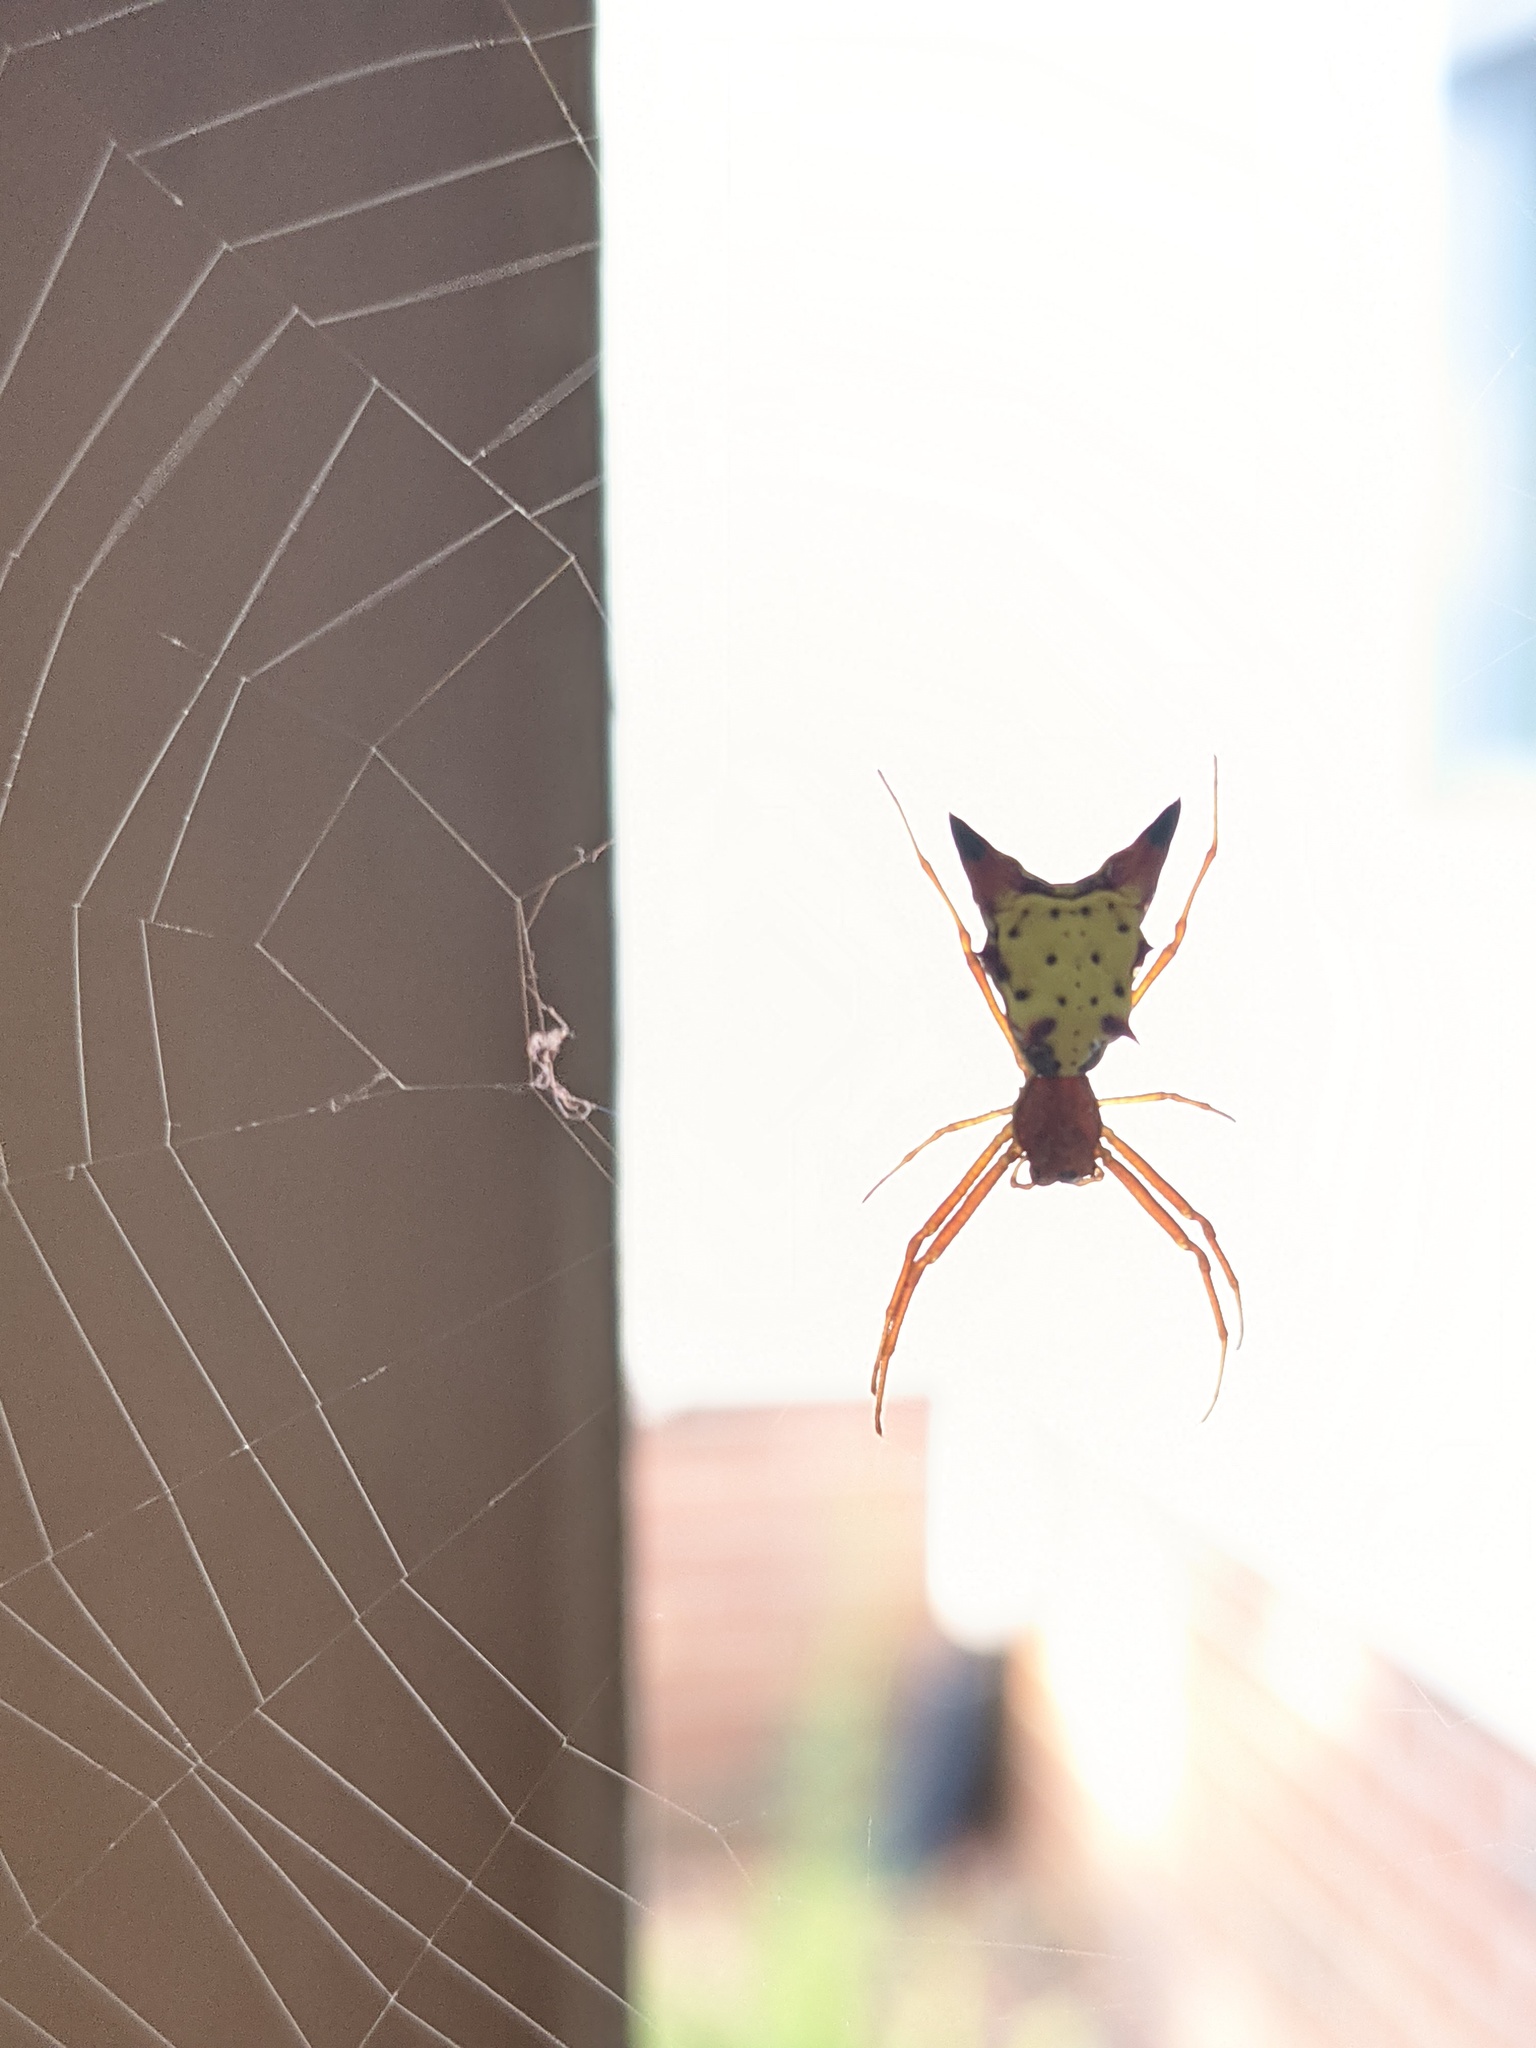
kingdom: Animalia
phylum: Arthropoda
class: Arachnida
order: Araneae
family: Araneidae
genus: Micrathena
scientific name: Micrathena sagittata
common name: Orb weavers
